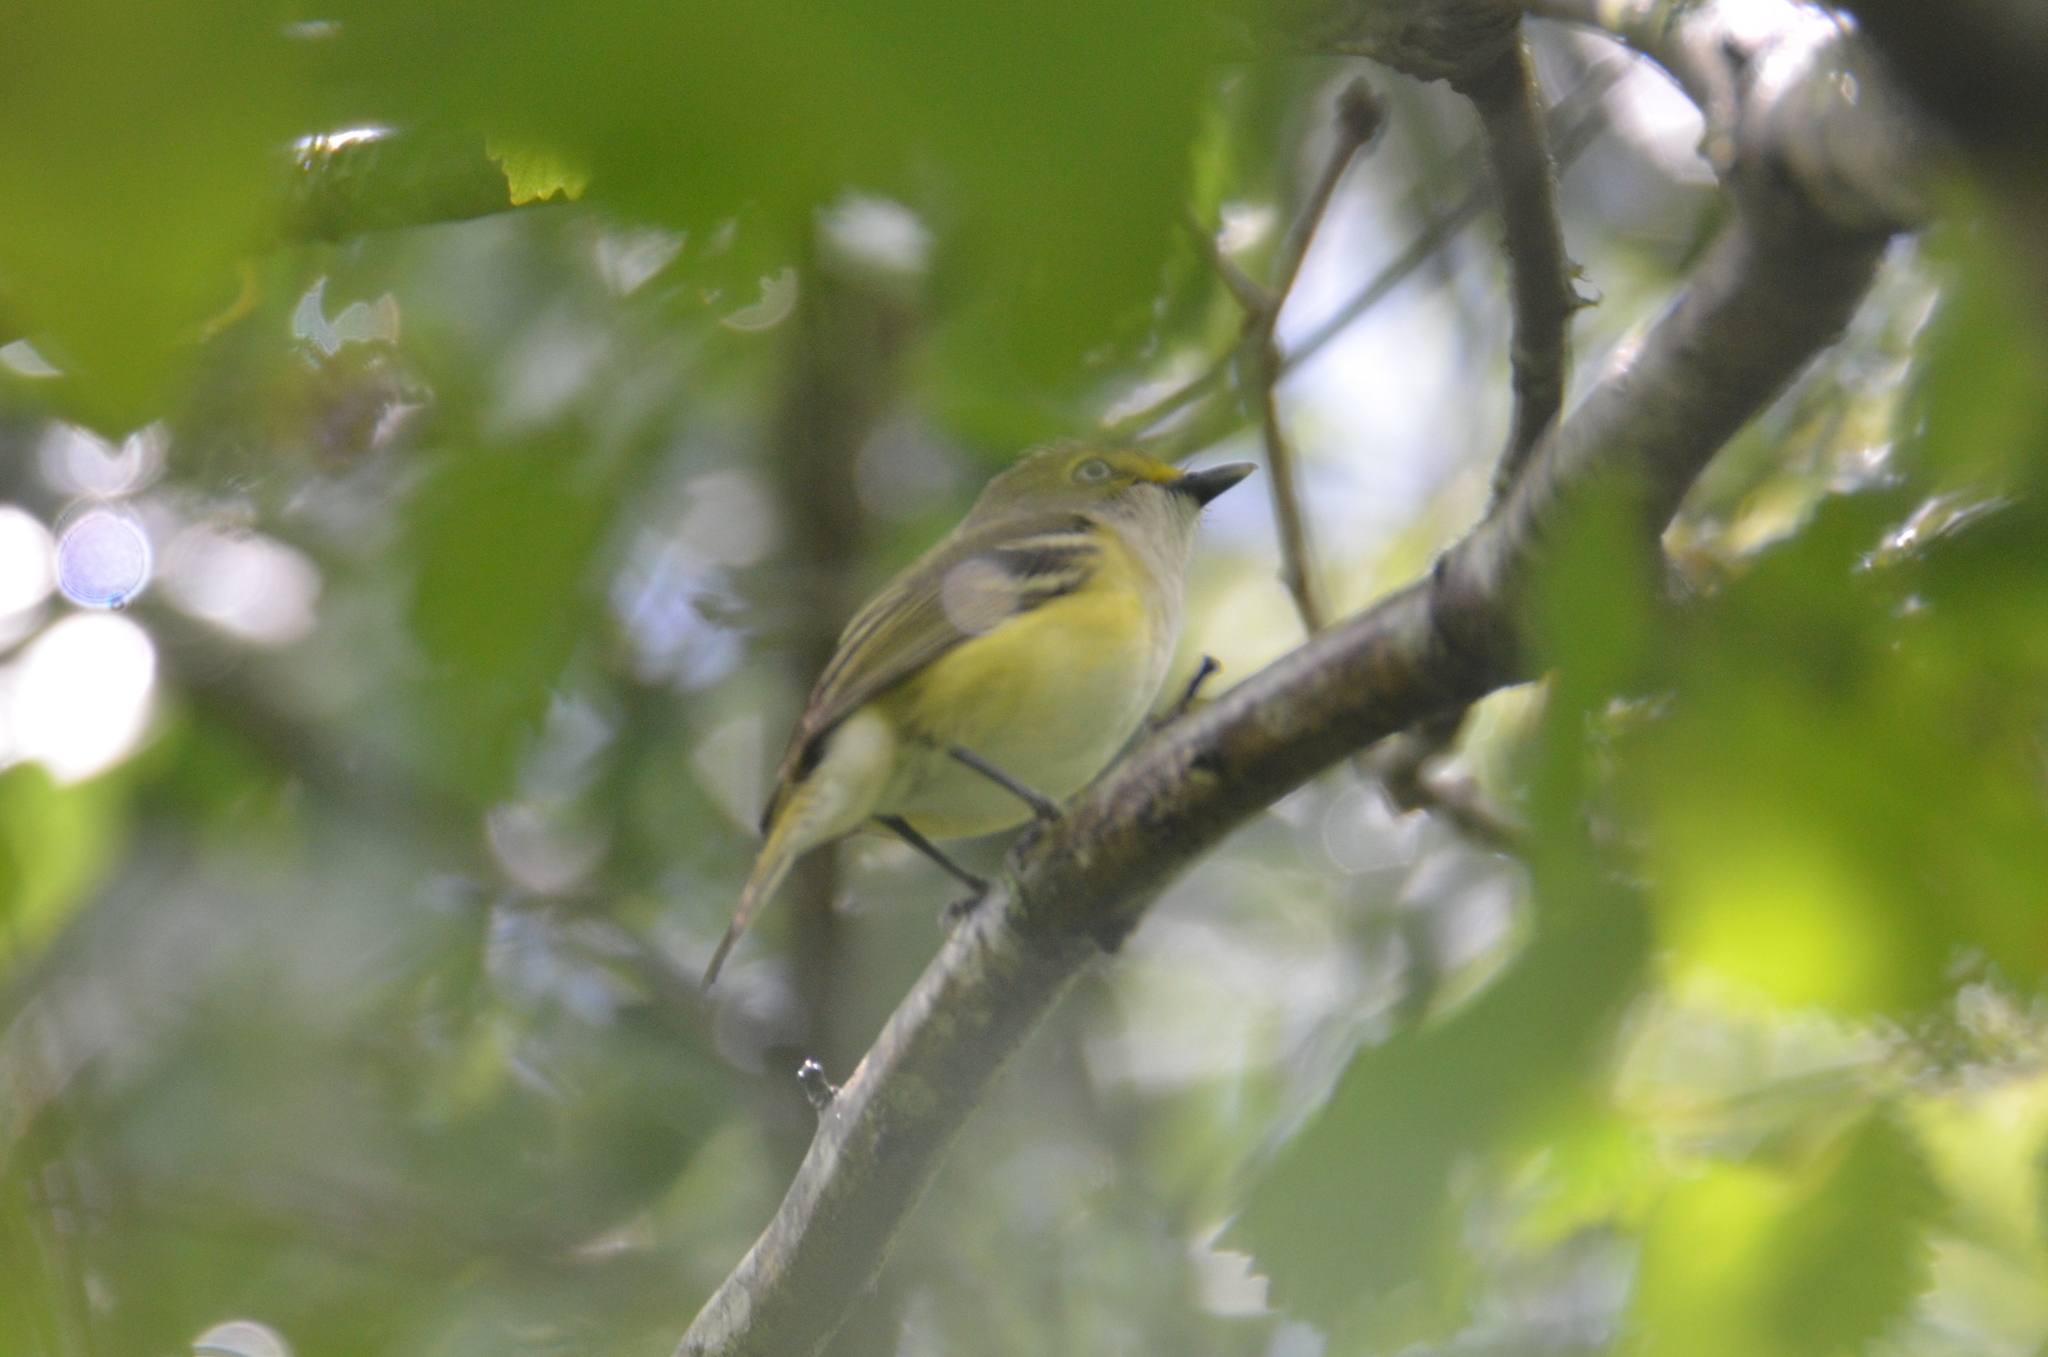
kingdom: Animalia
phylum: Chordata
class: Aves
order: Passeriformes
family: Vireonidae
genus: Vireo
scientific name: Vireo griseus
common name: White-eyed vireo
